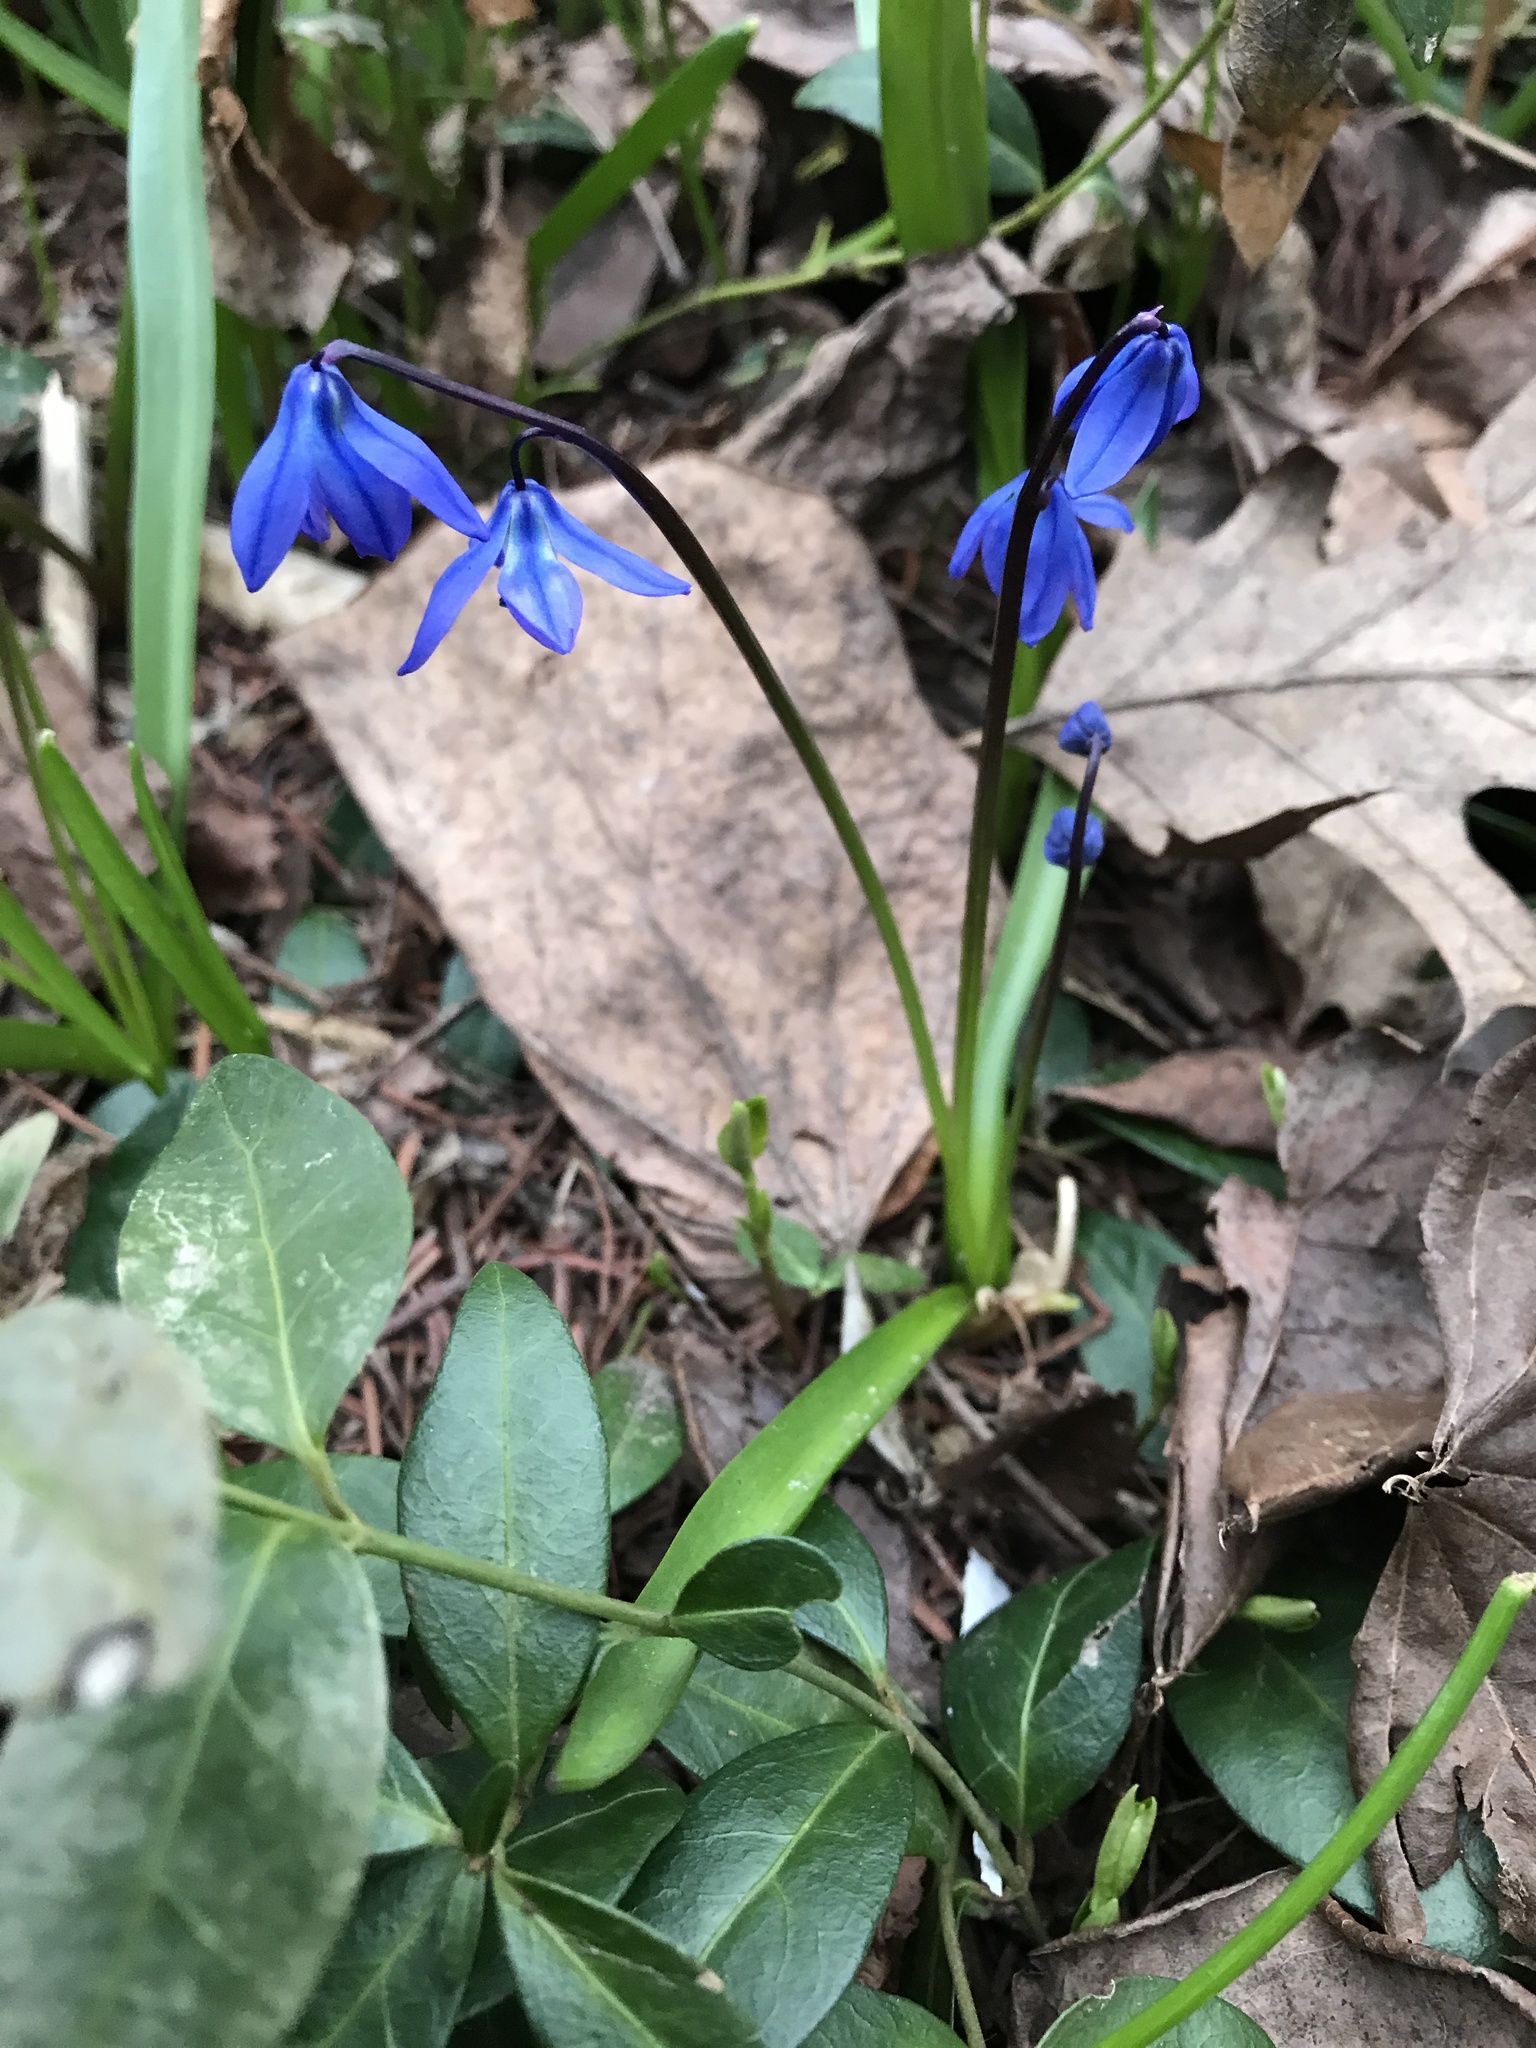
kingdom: Plantae
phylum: Tracheophyta
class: Liliopsida
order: Asparagales
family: Asparagaceae
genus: Scilla
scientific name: Scilla siberica
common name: Siberian squill
